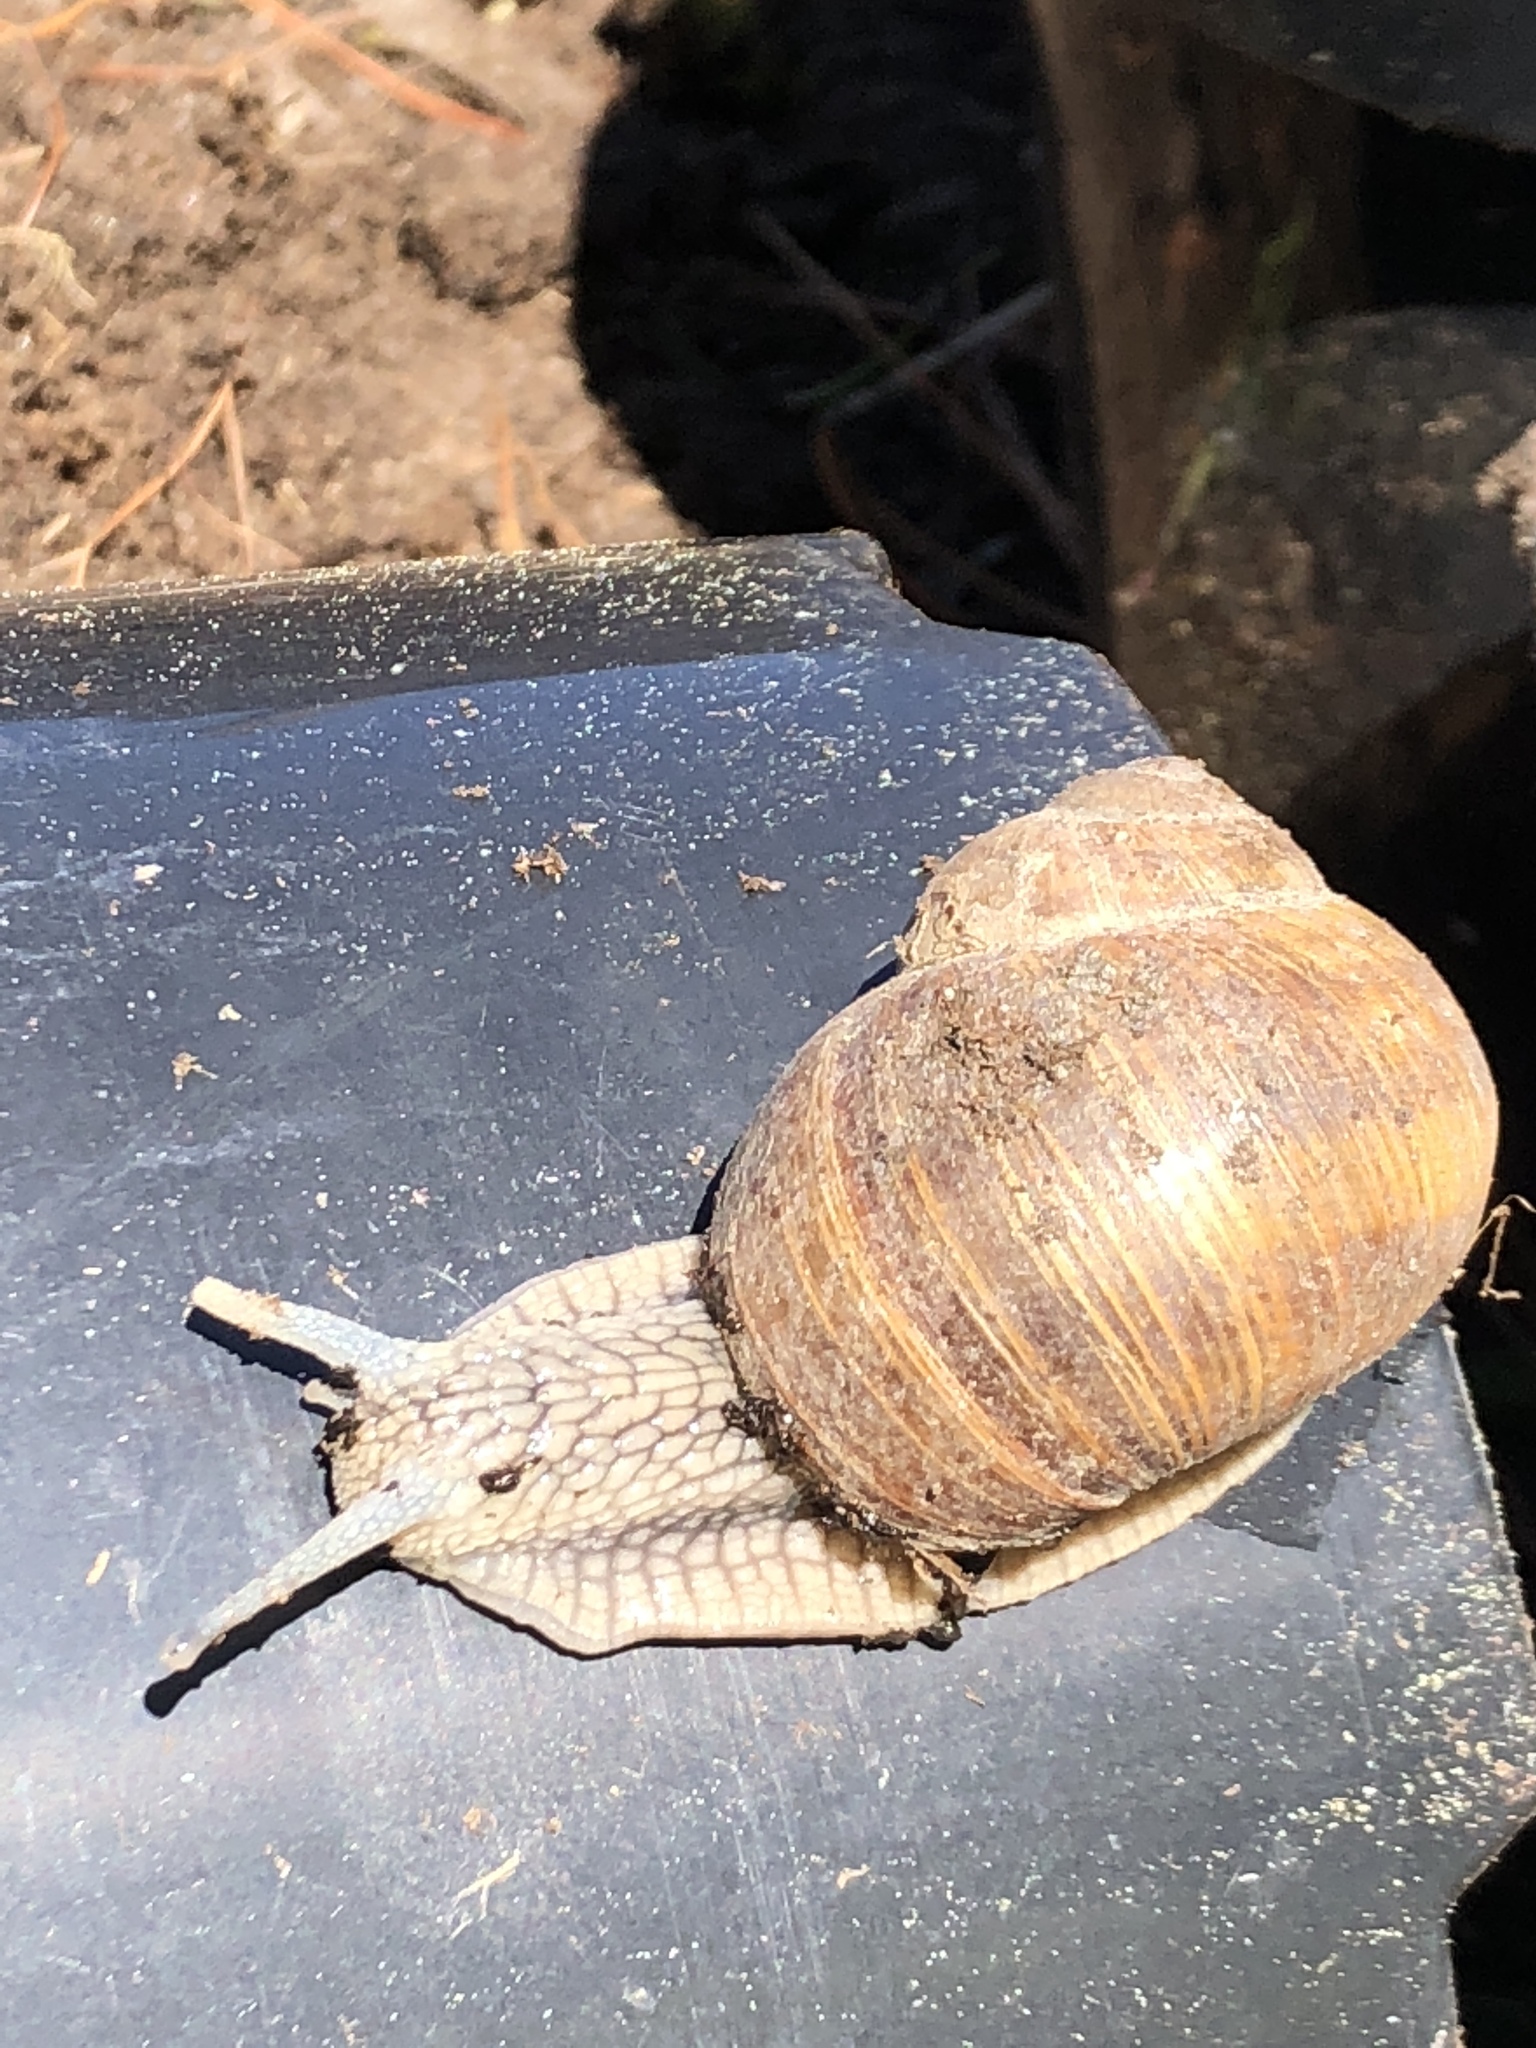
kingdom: Animalia
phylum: Mollusca
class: Gastropoda
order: Stylommatophora
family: Helicidae
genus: Helix
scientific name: Helix pomatia
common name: Roman snail
